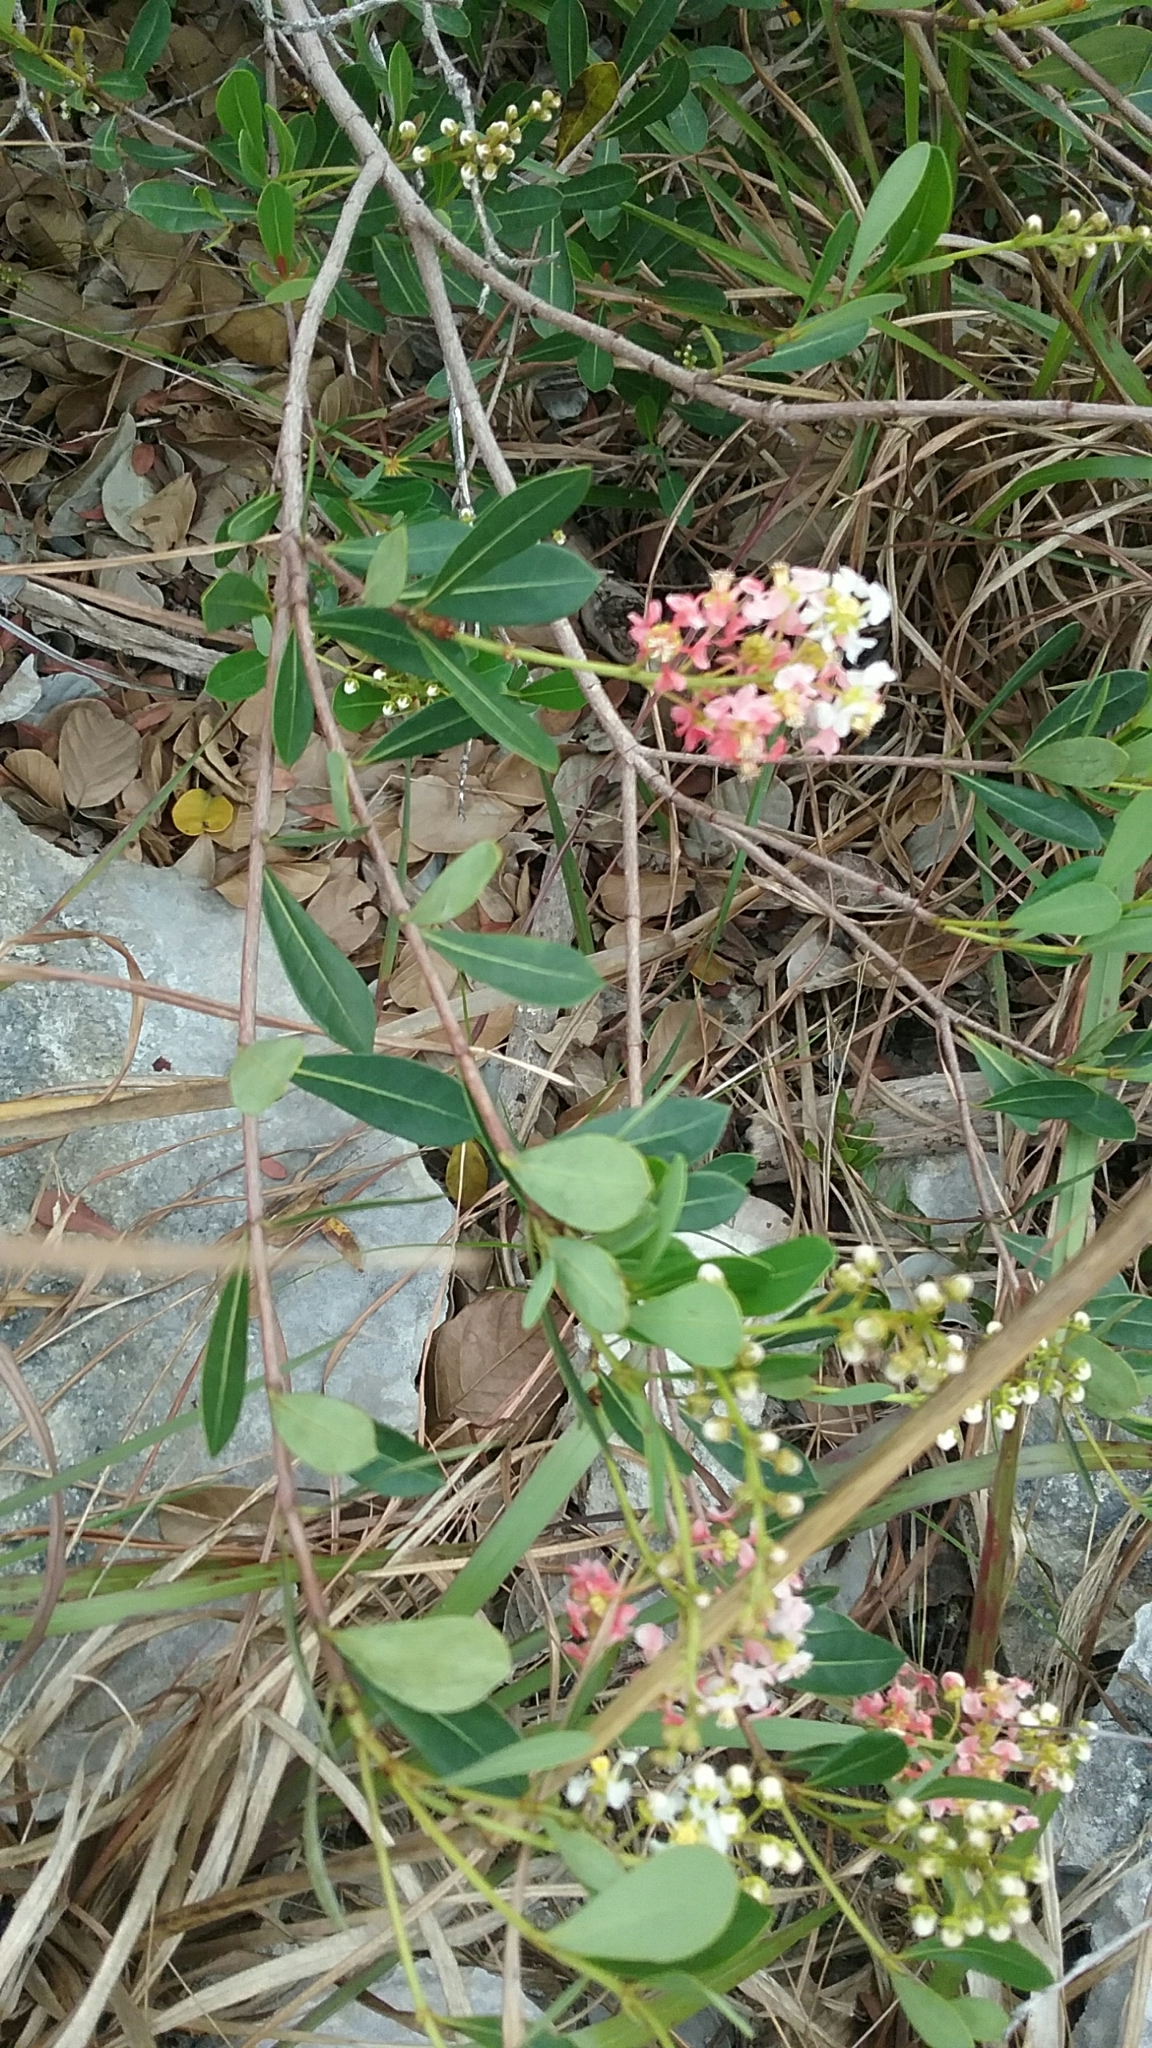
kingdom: Plantae
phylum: Tracheophyta
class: Magnoliopsida
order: Malpighiales
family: Malpighiaceae
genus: Byrsonima
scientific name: Byrsonima lucida
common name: Clam-cherry
